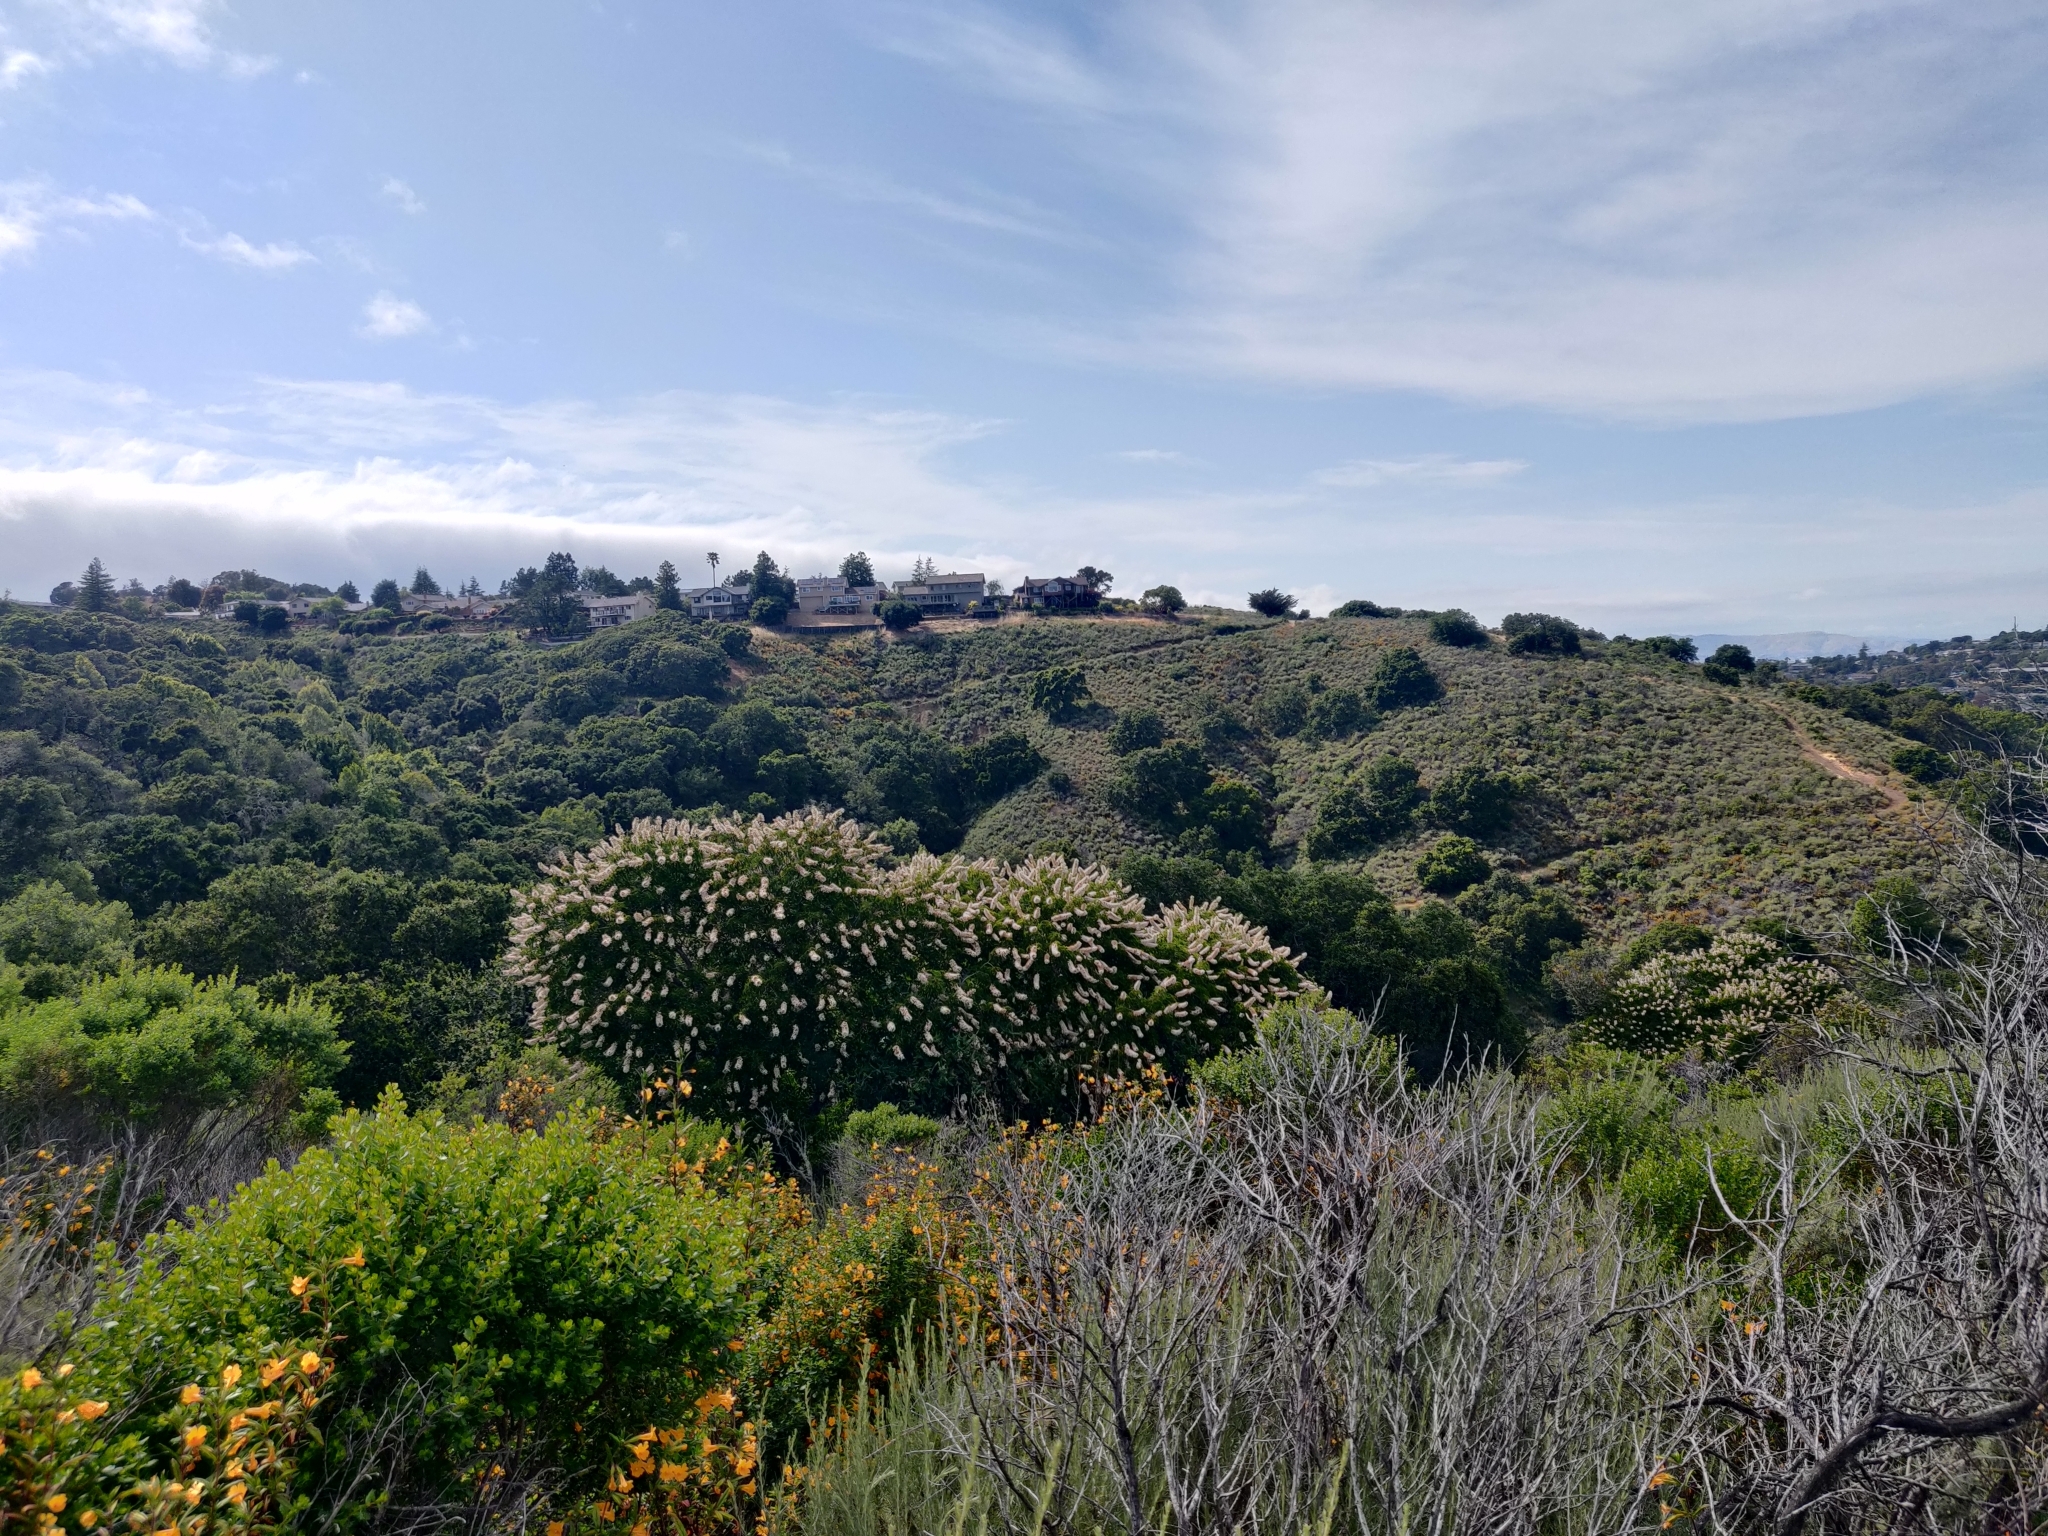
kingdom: Plantae
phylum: Tracheophyta
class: Magnoliopsida
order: Sapindales
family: Sapindaceae
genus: Aesculus
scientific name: Aesculus californica
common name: California buckeye
